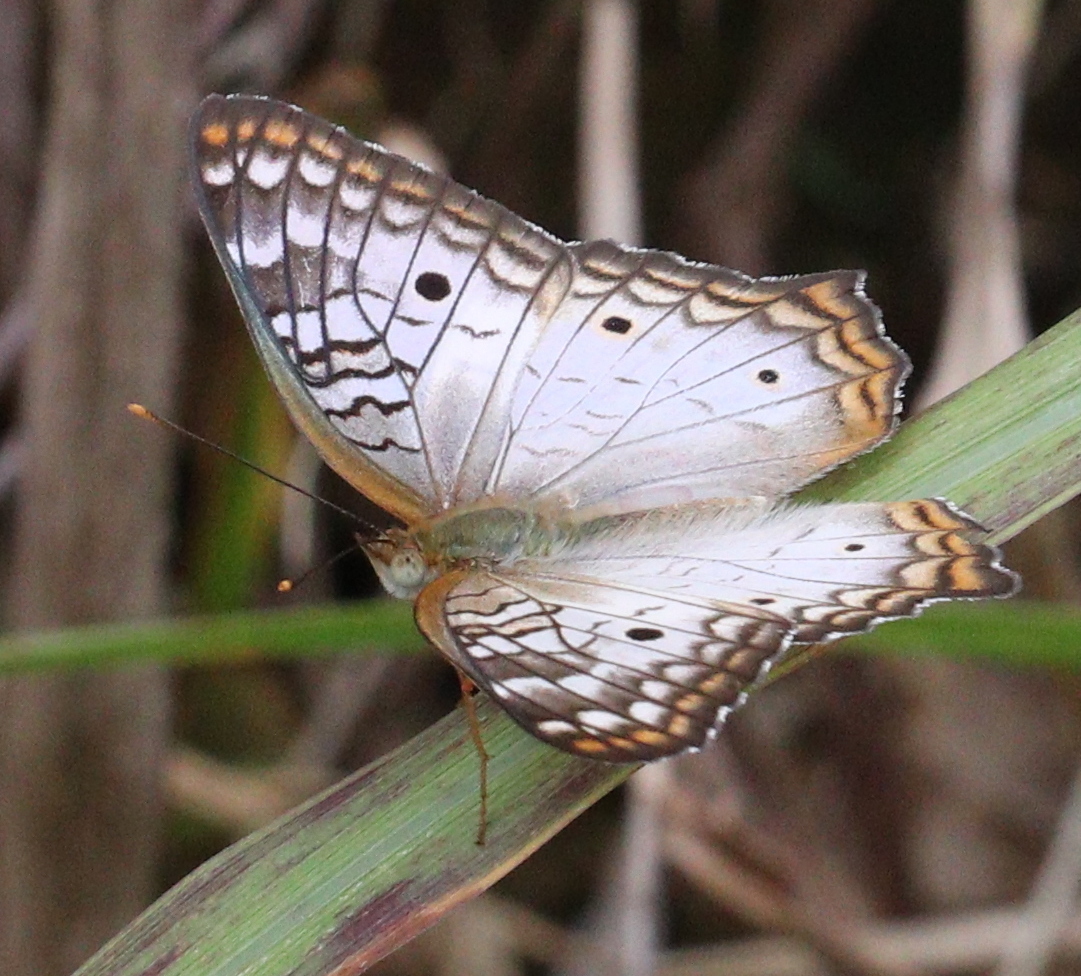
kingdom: Animalia
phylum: Arthropoda
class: Insecta
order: Lepidoptera
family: Nymphalidae
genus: Anartia
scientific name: Anartia jatrophae
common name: White peacock
